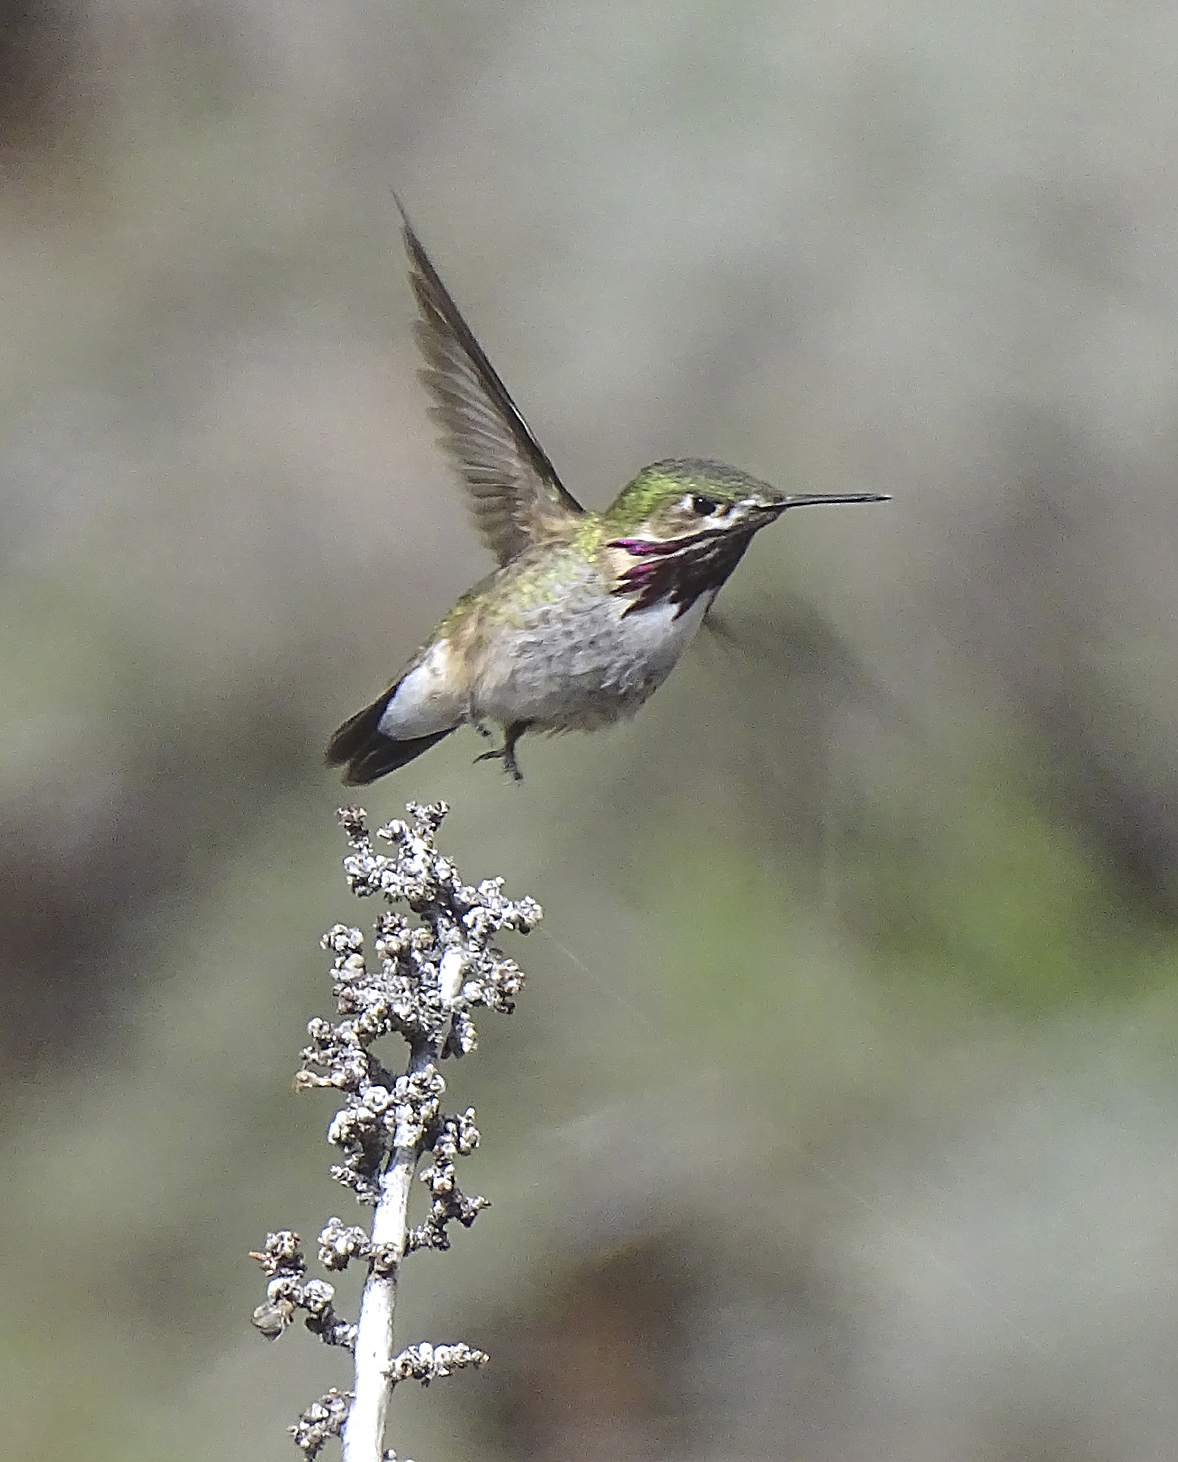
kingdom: Animalia
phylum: Chordata
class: Aves
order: Apodiformes
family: Trochilidae
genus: Selasphorus
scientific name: Selasphorus calliope
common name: Calliope hummingbird
